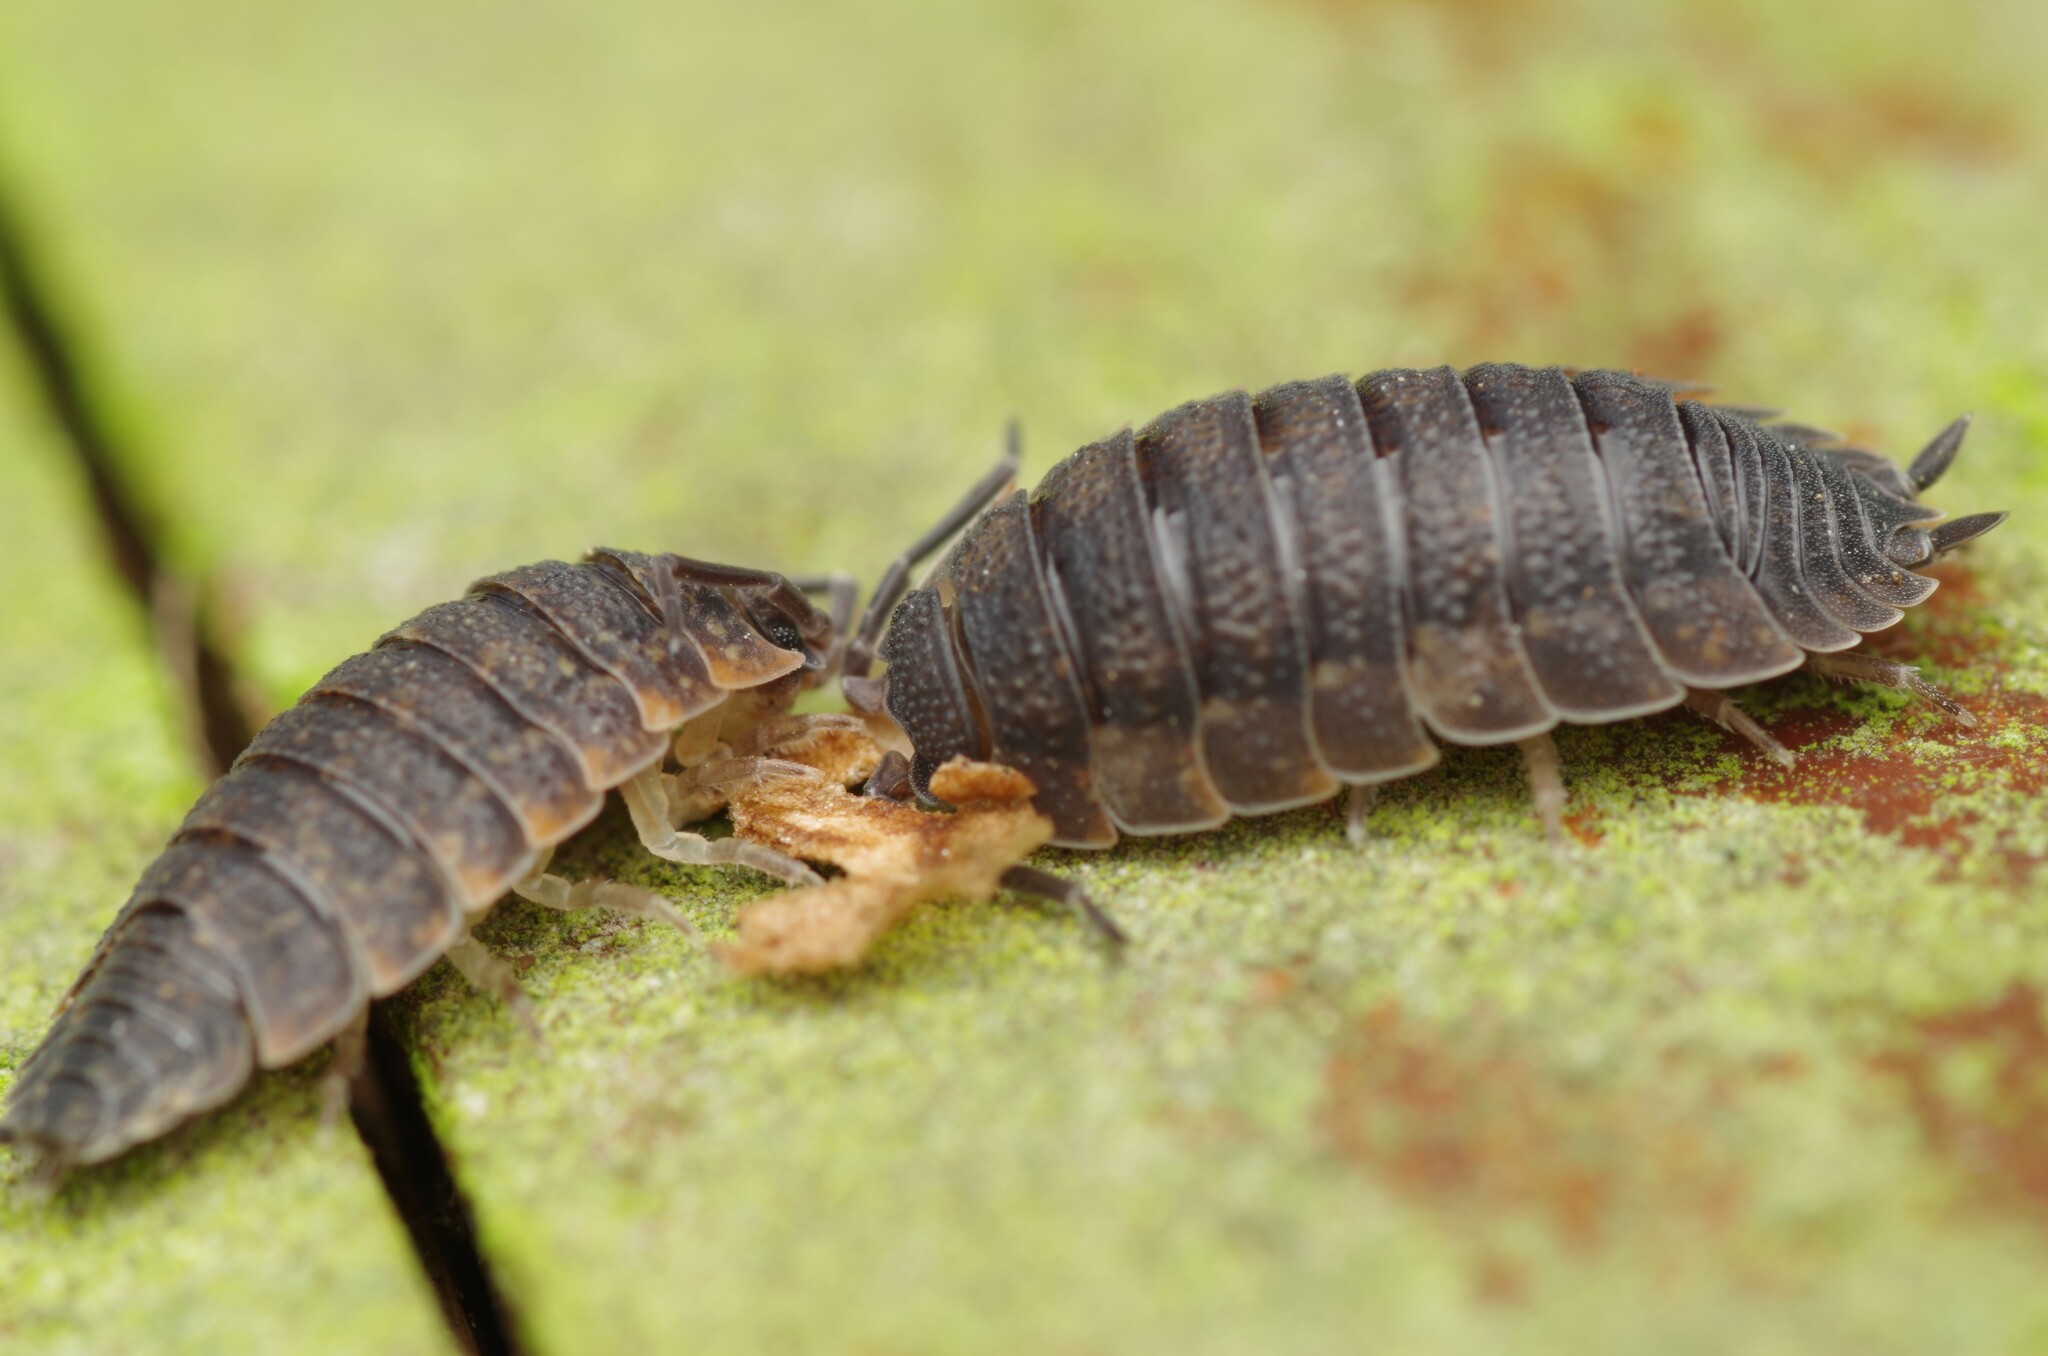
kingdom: Animalia
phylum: Arthropoda
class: Malacostraca
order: Isopoda
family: Porcellionidae
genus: Porcellio
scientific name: Porcellio scaber
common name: Common rough woodlouse
